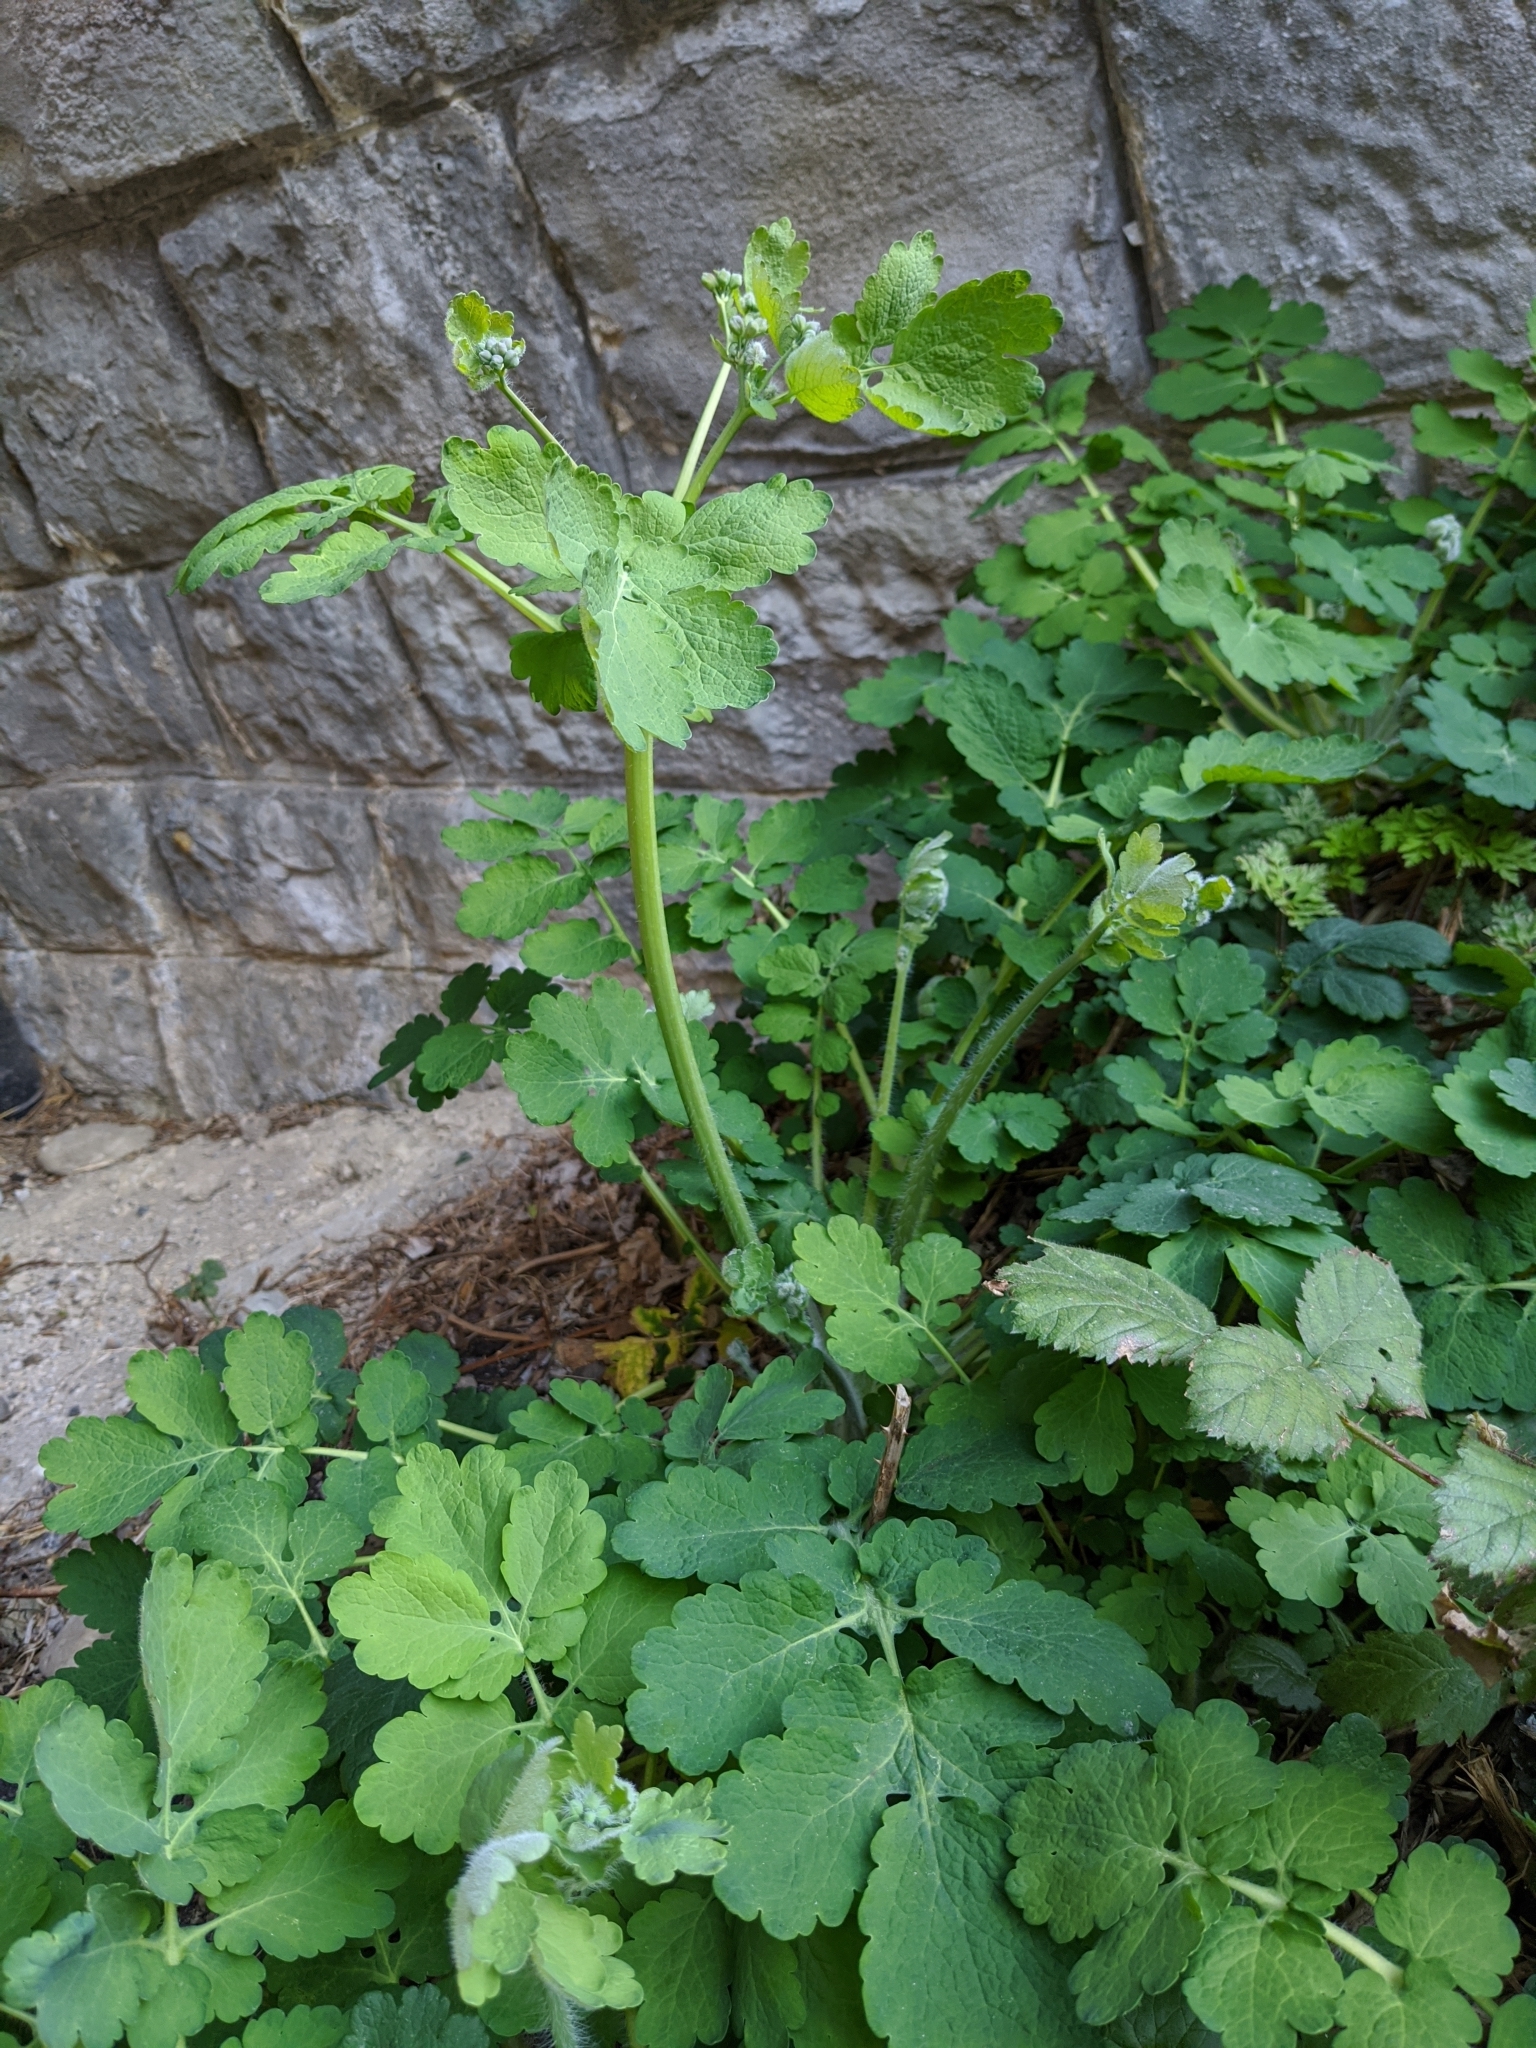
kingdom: Plantae
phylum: Tracheophyta
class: Magnoliopsida
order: Ranunculales
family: Papaveraceae
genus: Chelidonium
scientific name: Chelidonium majus
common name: Greater celandine
